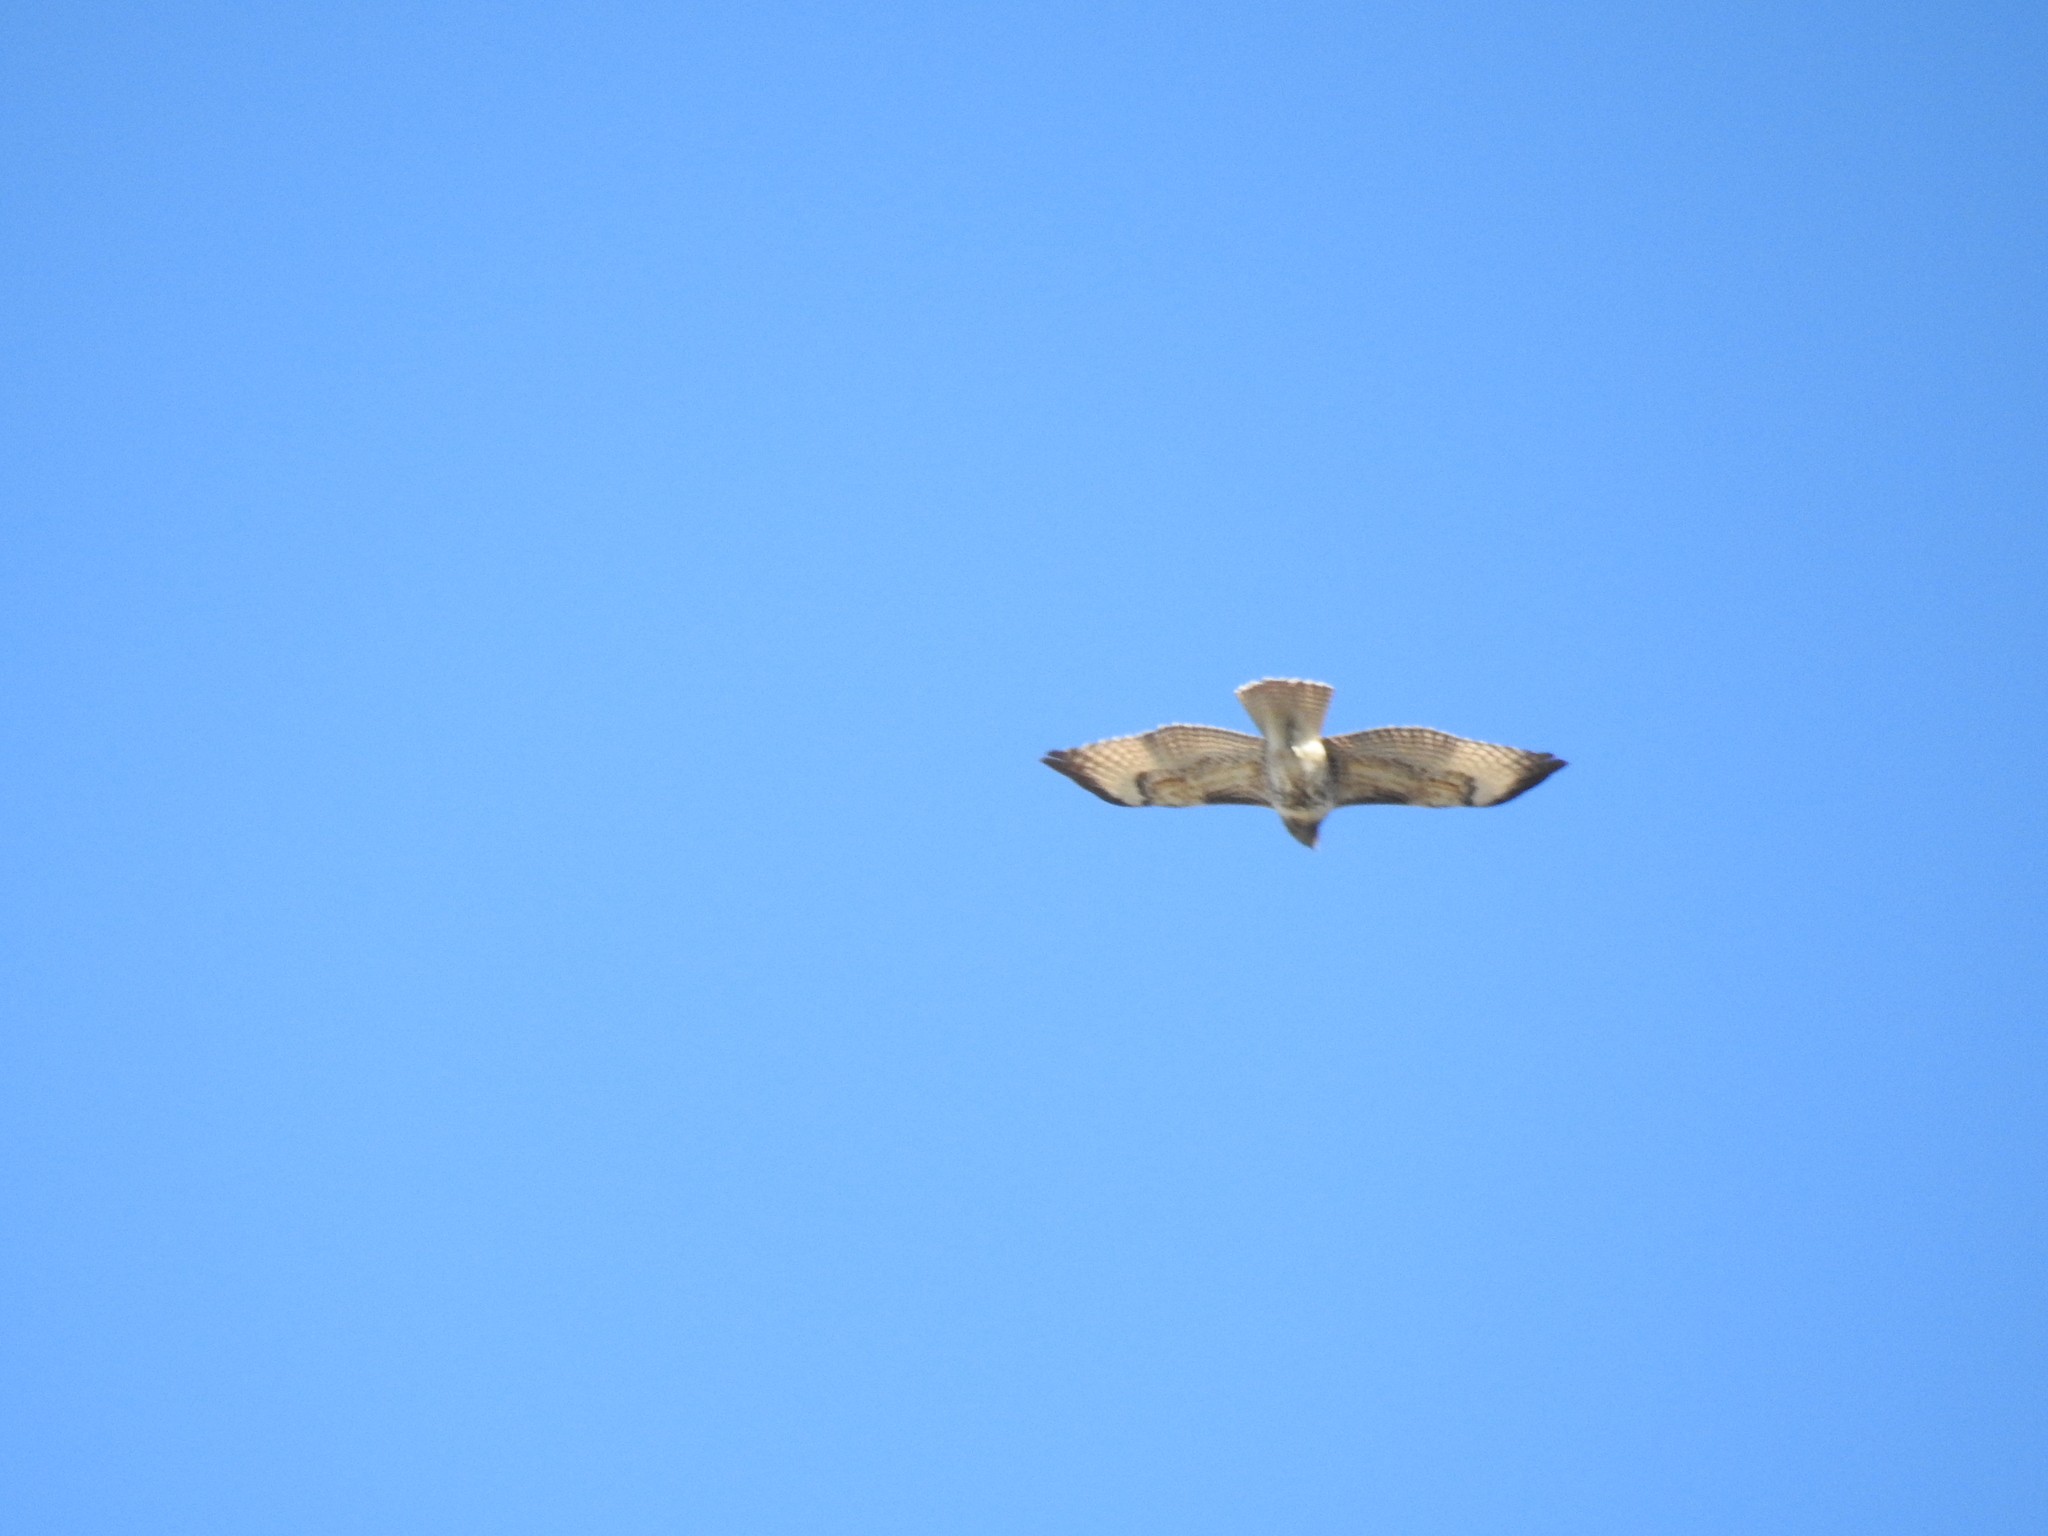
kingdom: Animalia
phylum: Chordata
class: Aves
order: Accipitriformes
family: Accipitridae
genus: Buteo
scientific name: Buteo jamaicensis
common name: Red-tailed hawk
